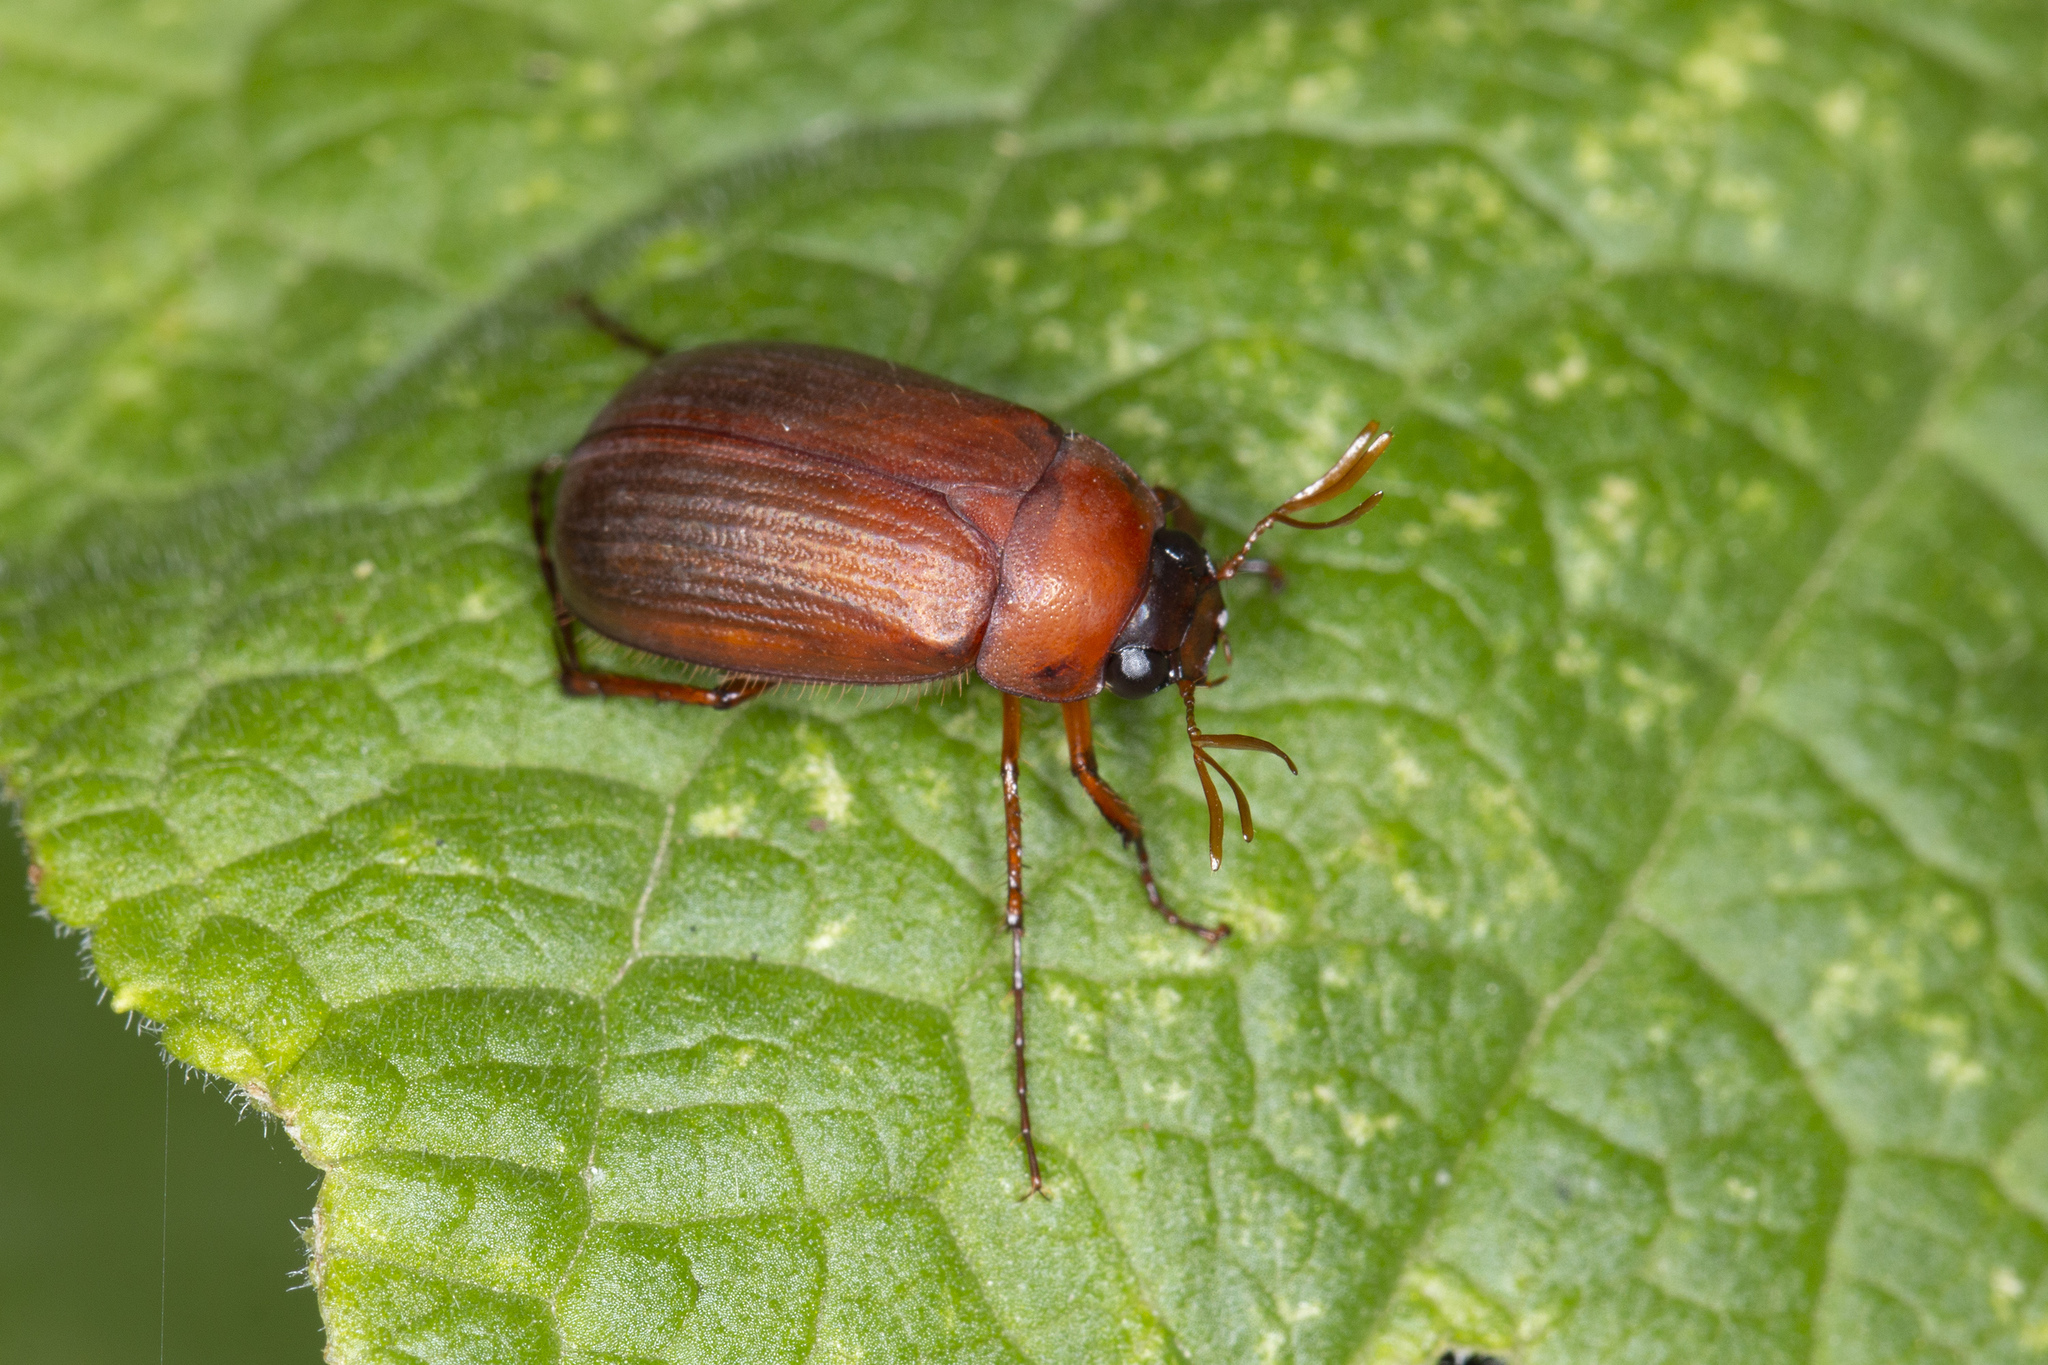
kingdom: Animalia
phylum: Arthropoda
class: Insecta
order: Coleoptera
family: Scarabaeidae
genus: Serica
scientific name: Serica brunnea
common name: Brown chafer
